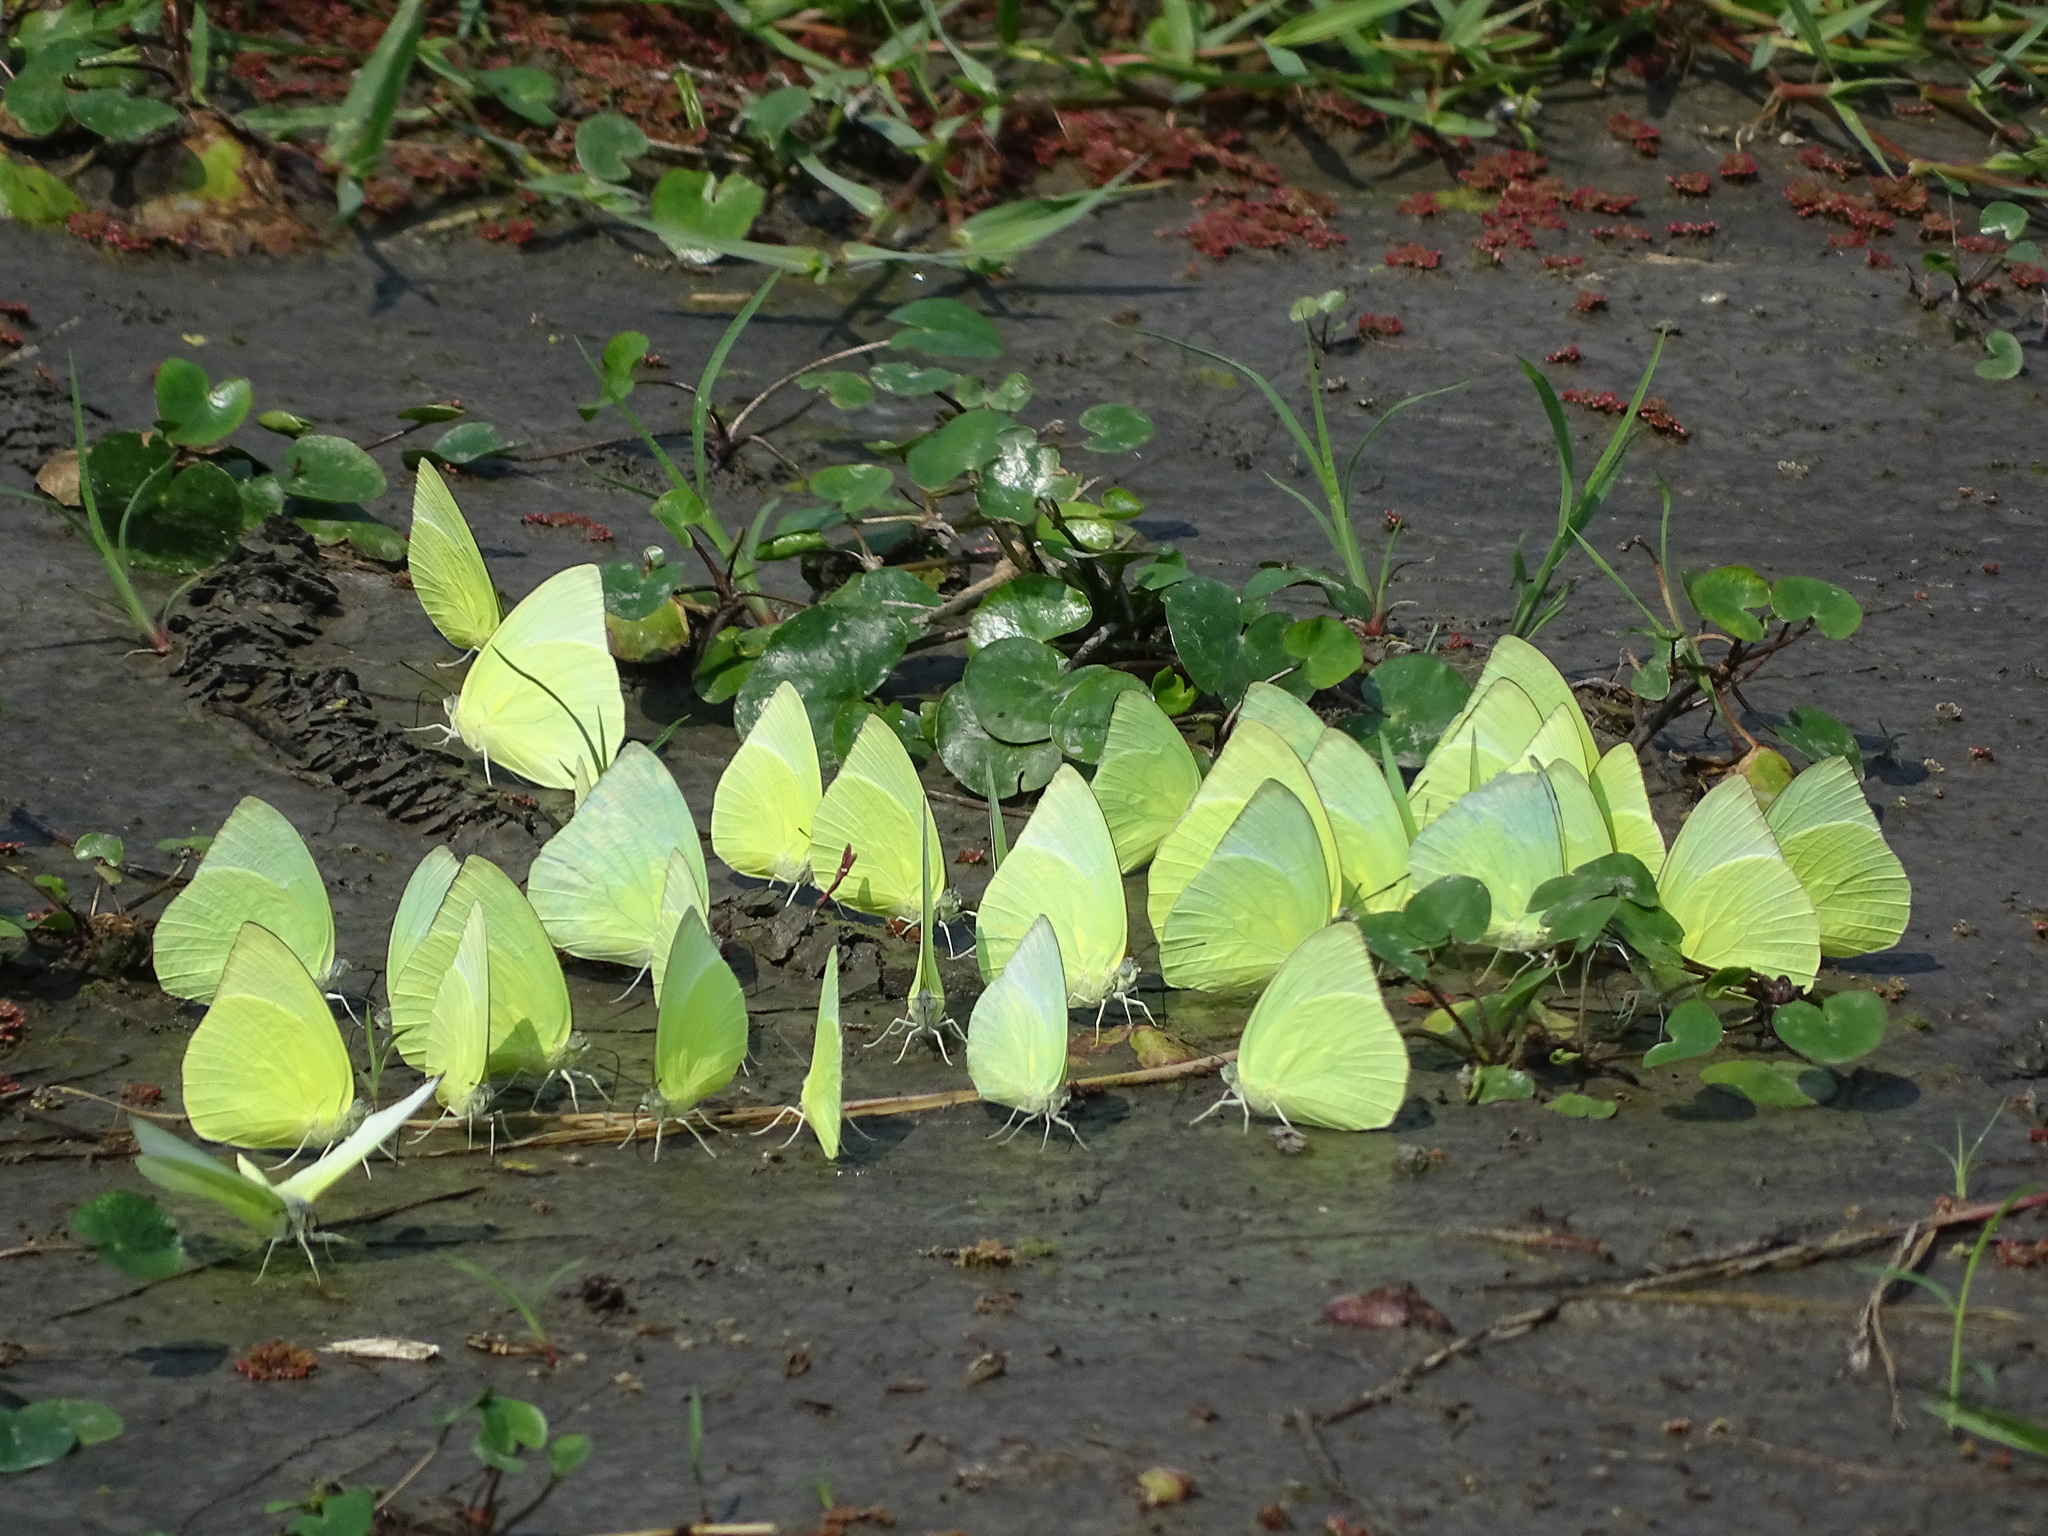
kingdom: Animalia
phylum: Arthropoda
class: Insecta
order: Lepidoptera
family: Pieridae
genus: Catopsilia
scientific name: Catopsilia pomona
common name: Common emigrant
